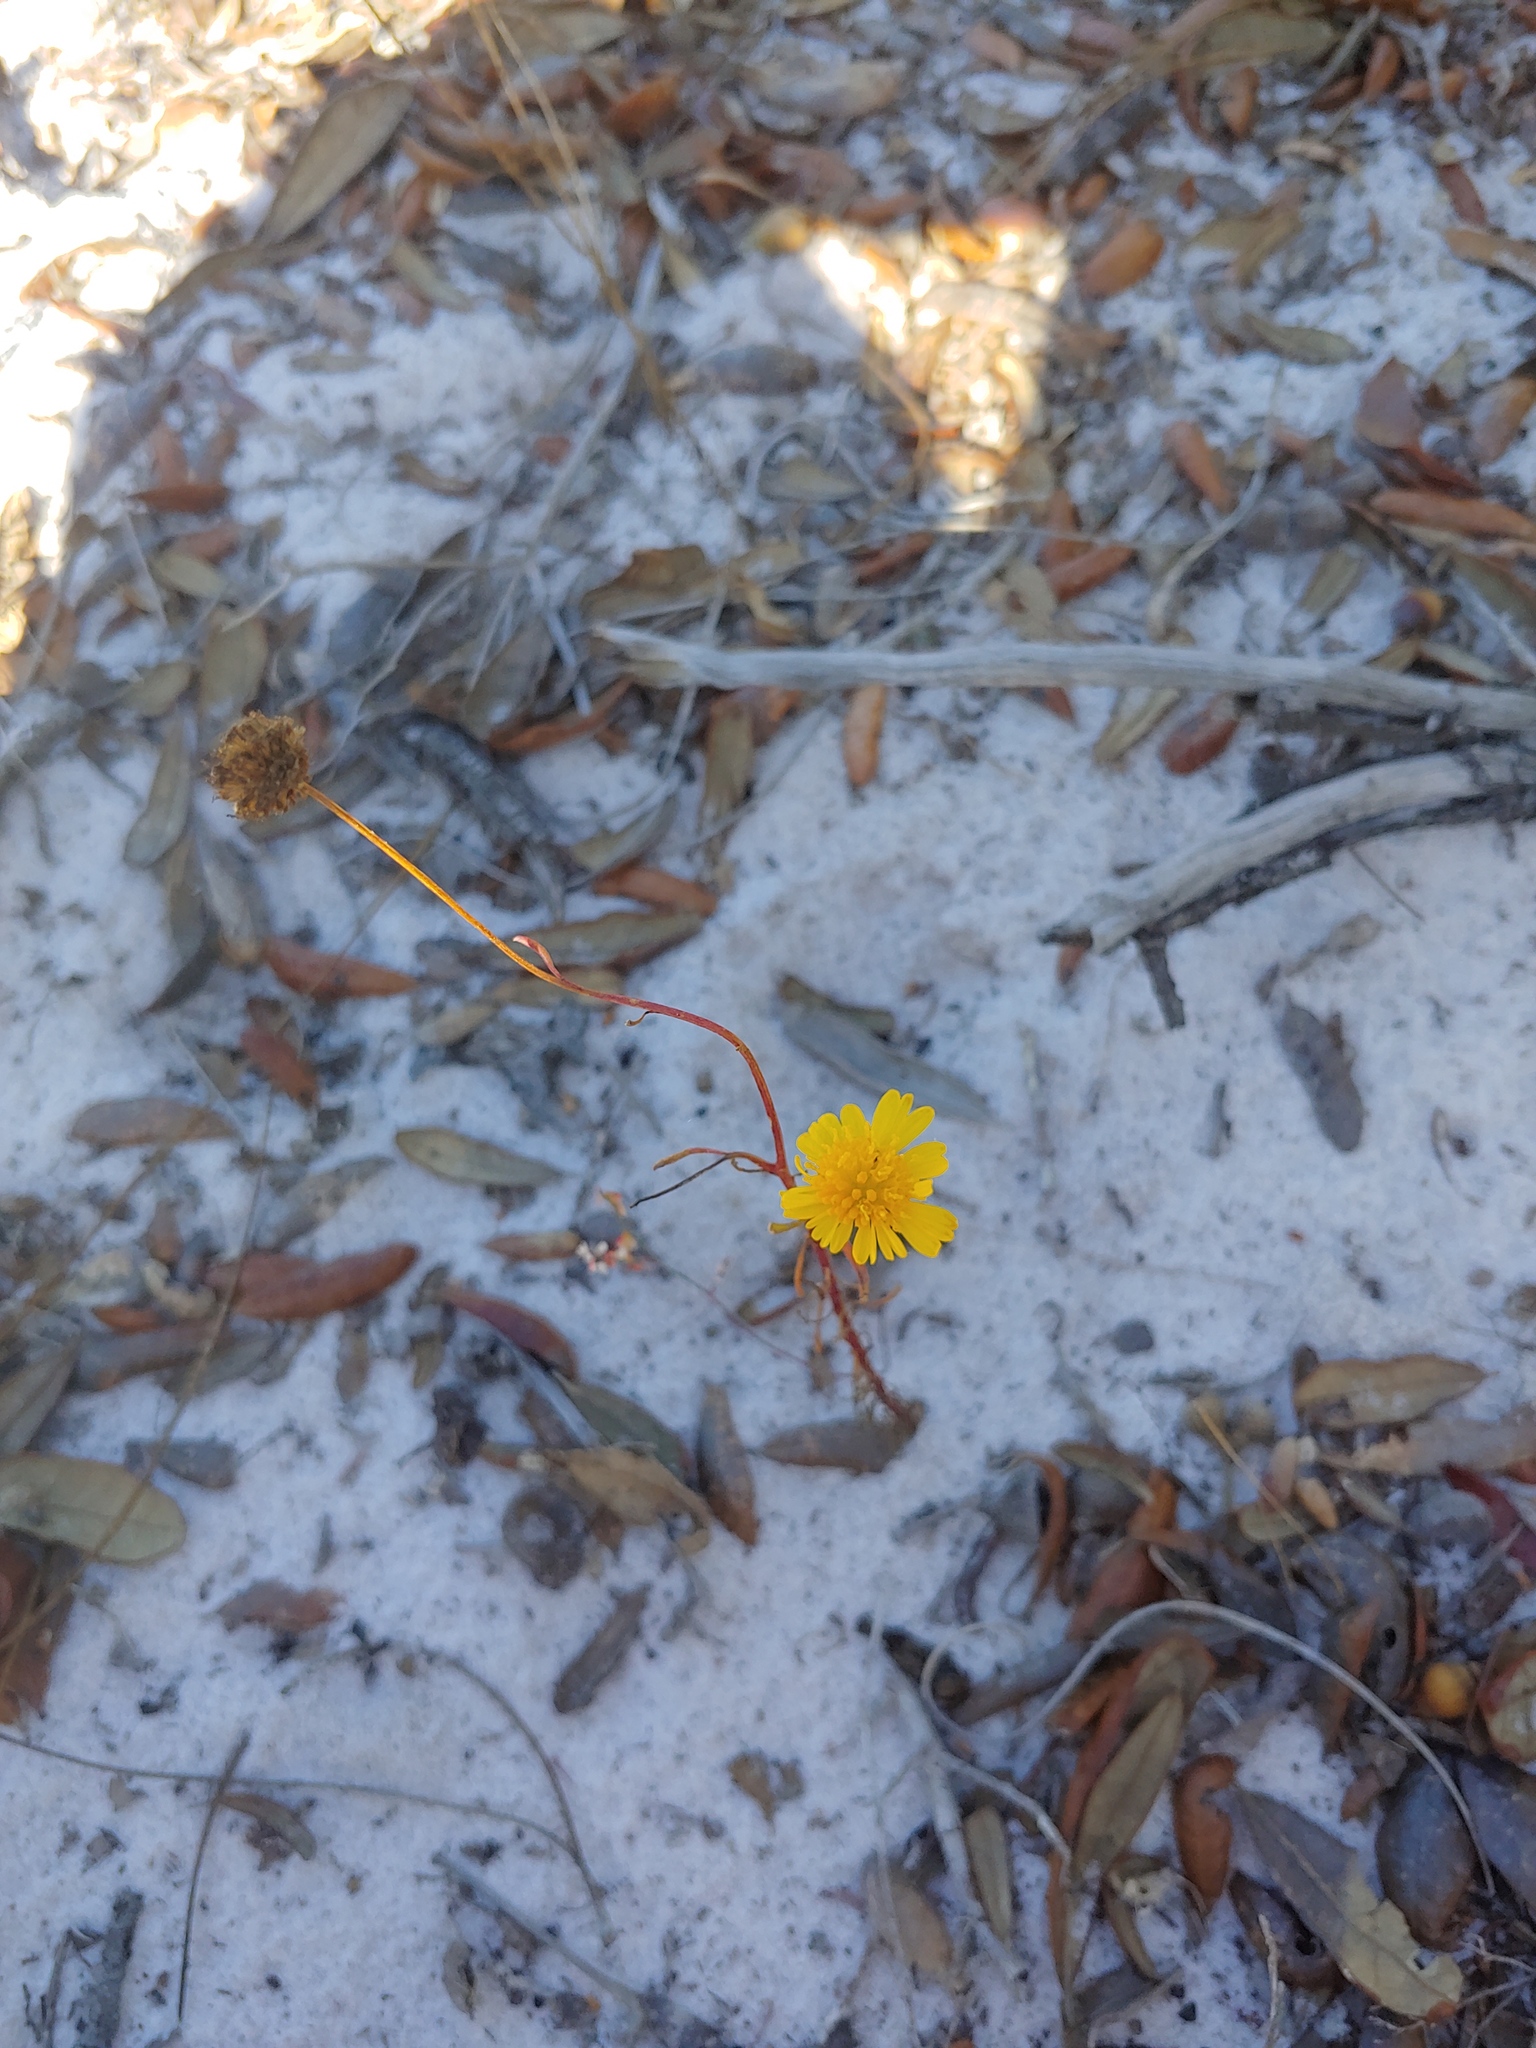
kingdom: Plantae
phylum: Tracheophyta
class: Magnoliopsida
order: Asterales
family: Asteraceae
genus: Balduina
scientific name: Balduina angustifolia
